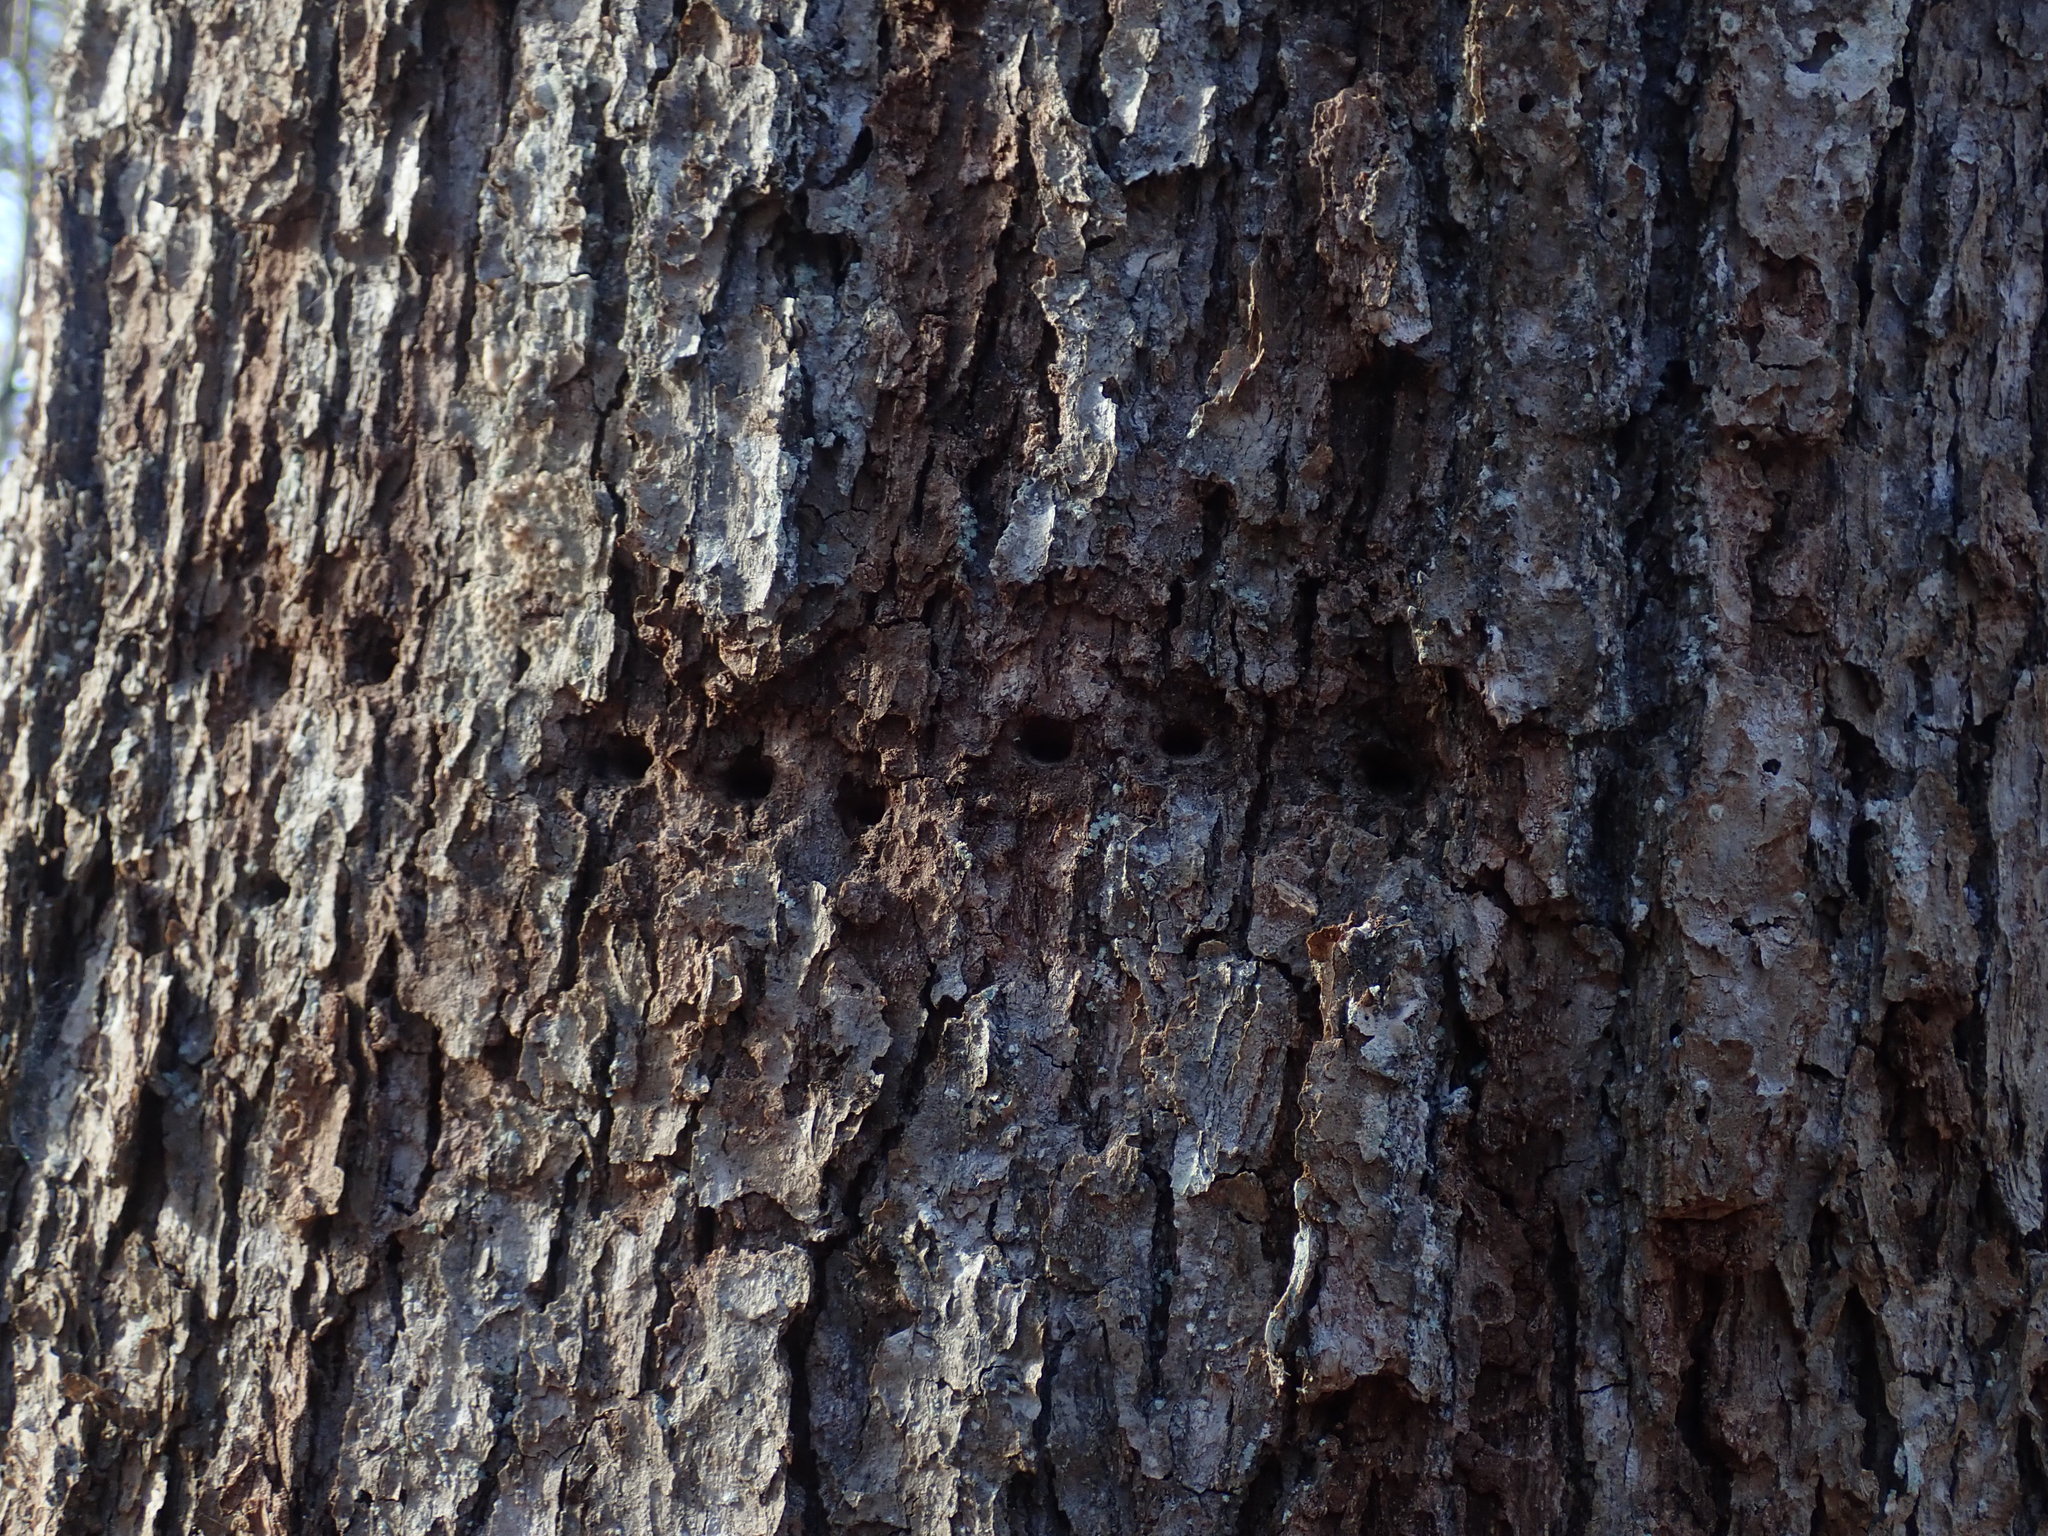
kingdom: Animalia
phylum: Chordata
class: Aves
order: Piciformes
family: Picidae
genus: Sphyrapicus
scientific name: Sphyrapicus varius
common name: Yellow-bellied sapsucker
